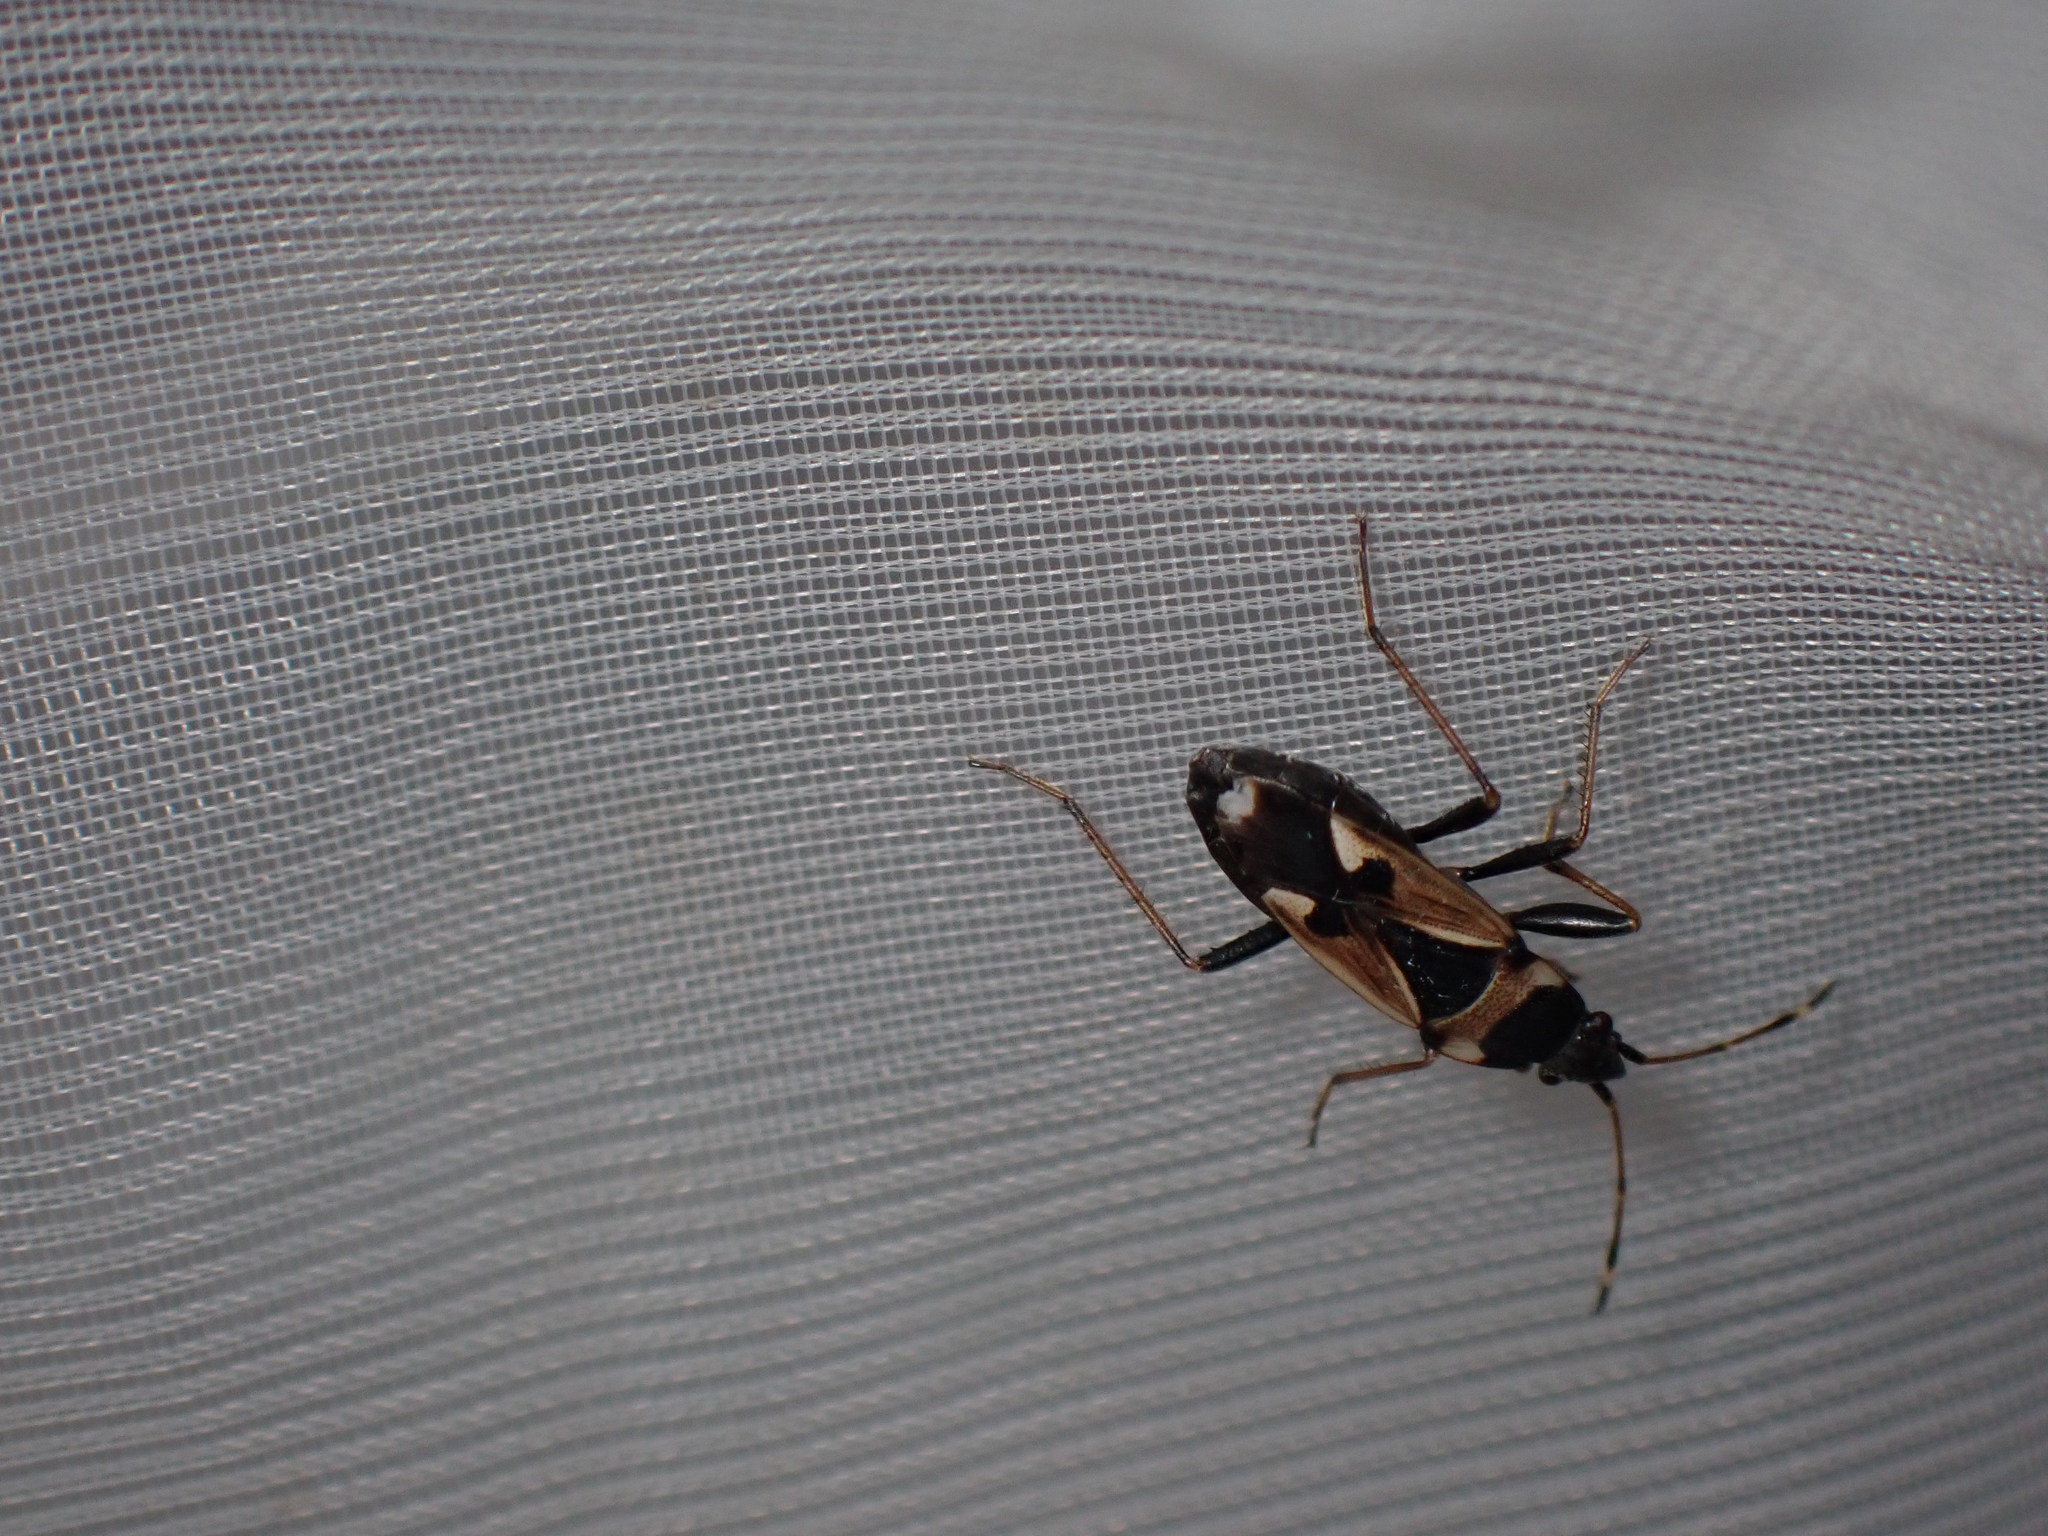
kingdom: Animalia
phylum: Arthropoda
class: Insecta
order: Hemiptera
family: Rhyparochromidae
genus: Raglius
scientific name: Raglius confusus
